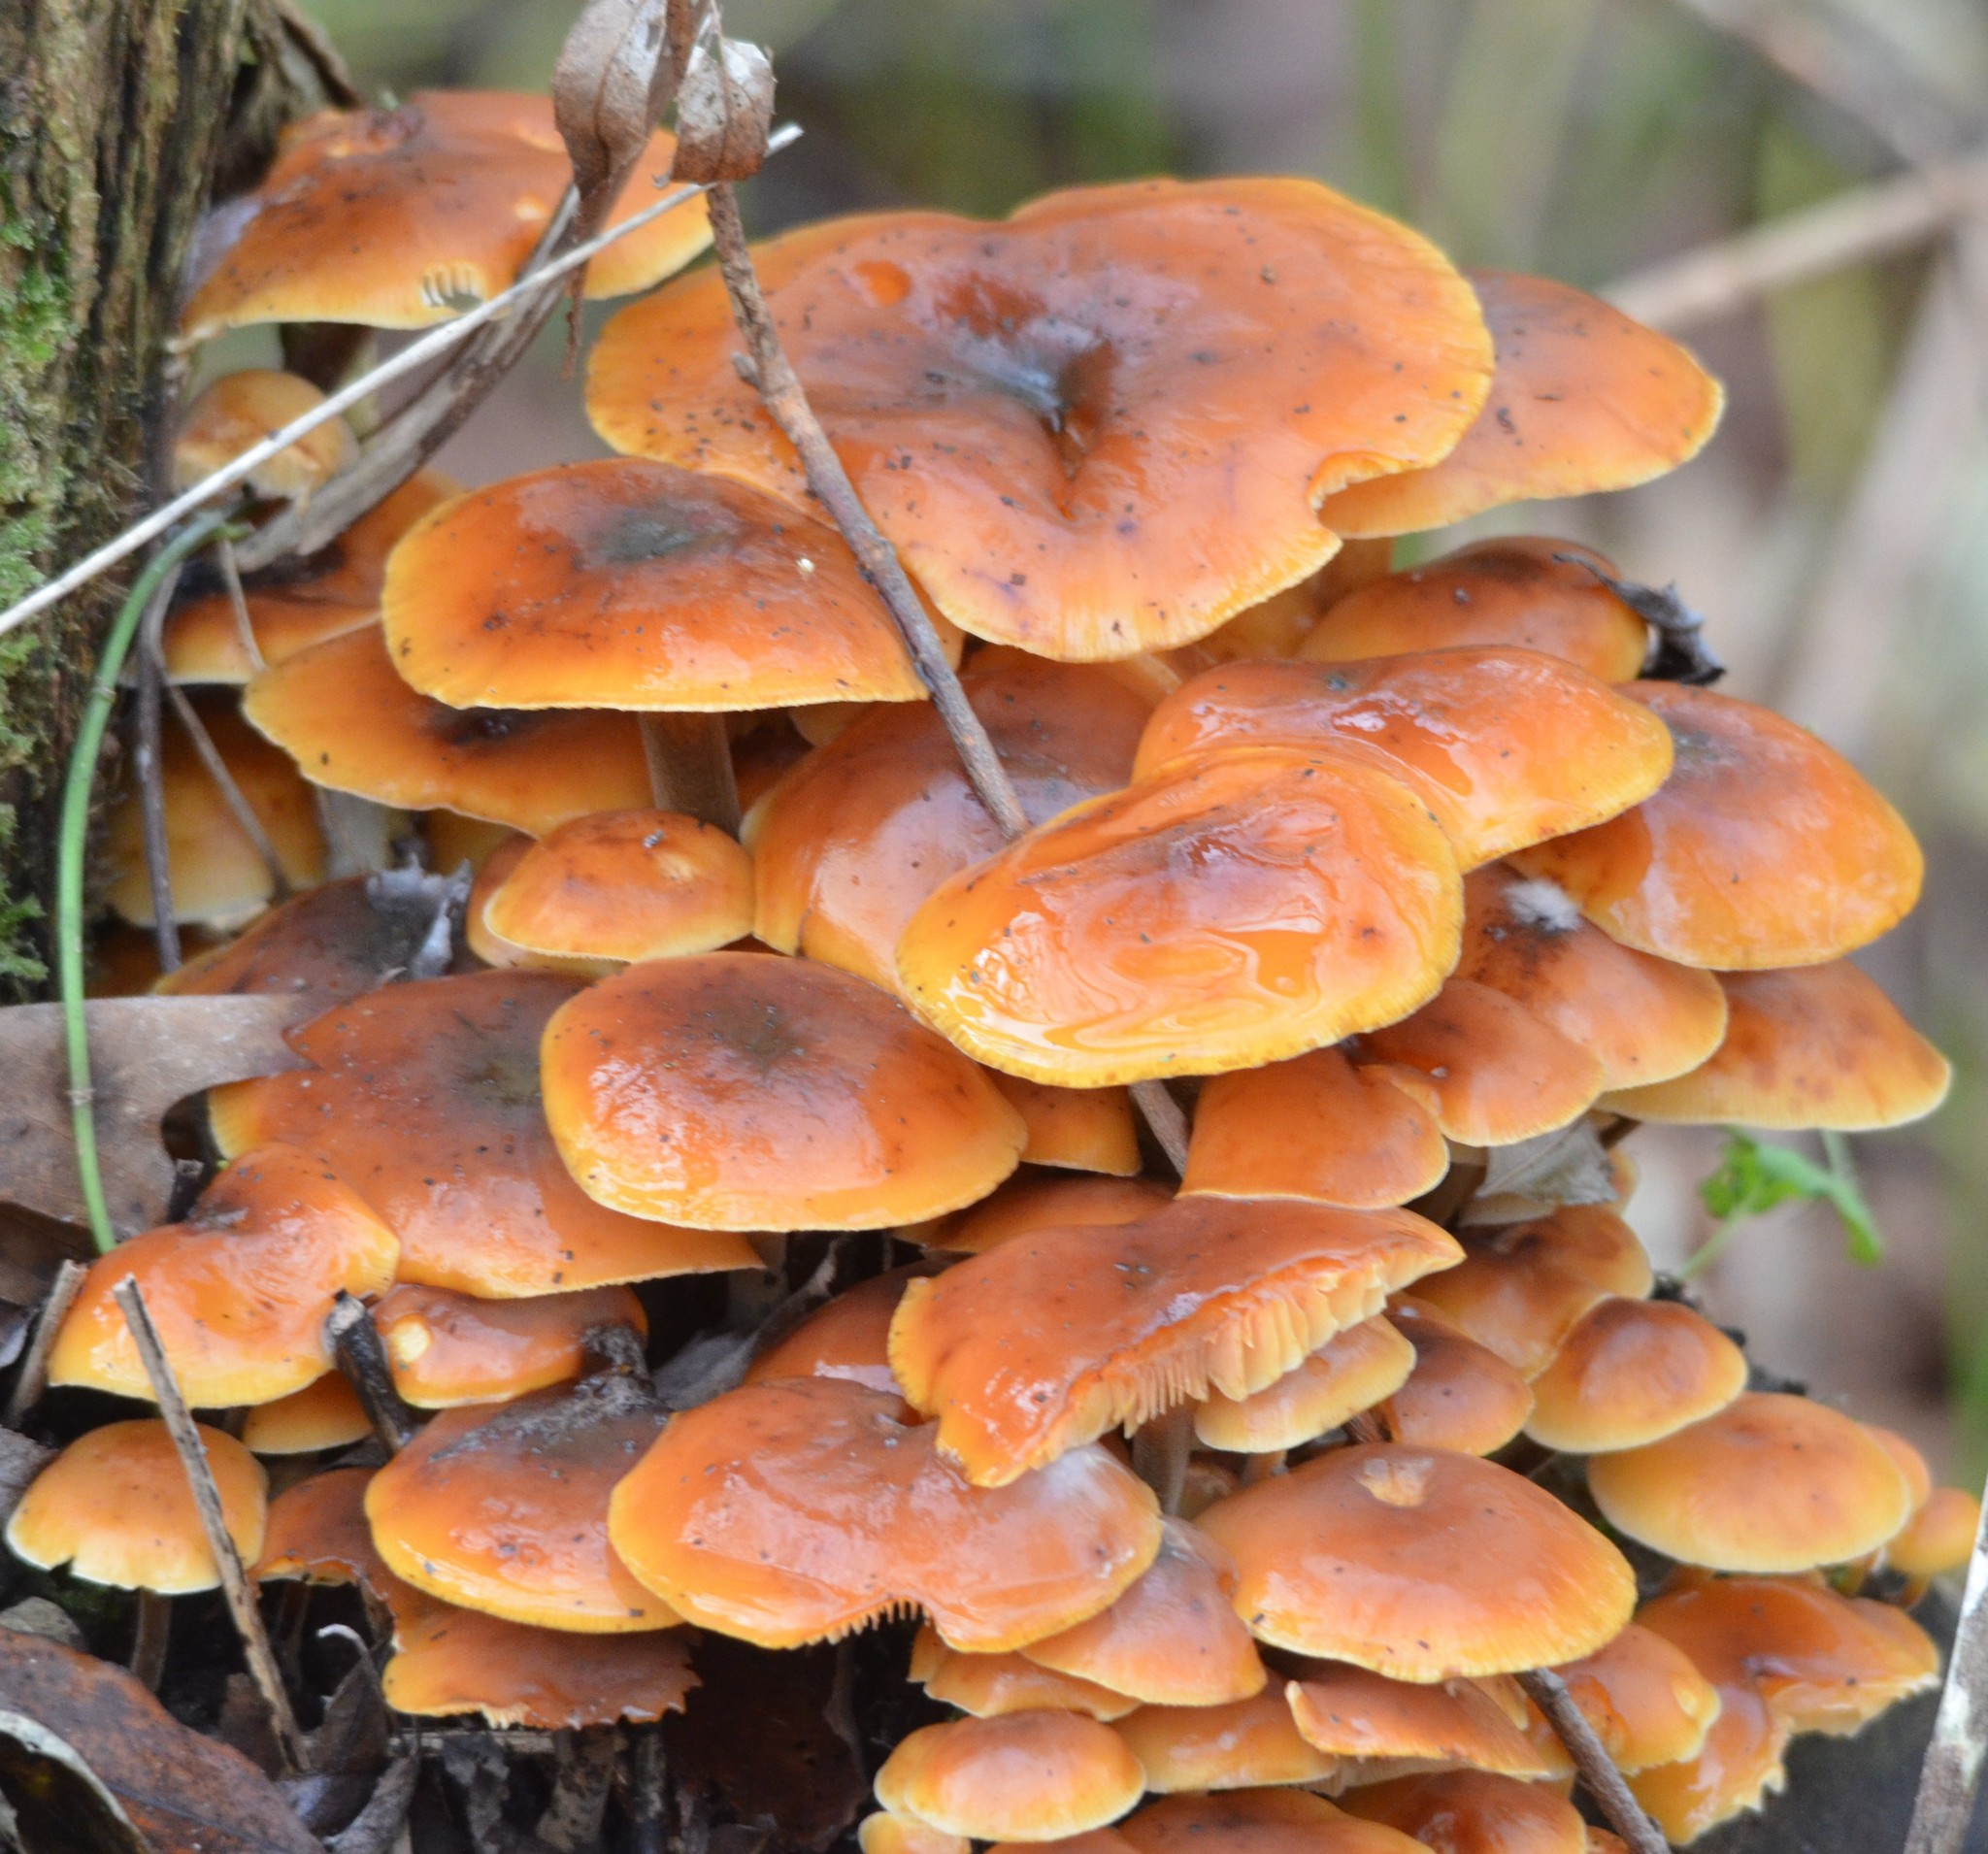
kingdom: Fungi
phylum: Basidiomycota
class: Agaricomycetes
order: Agaricales
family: Physalacriaceae
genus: Flammulina
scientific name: Flammulina
